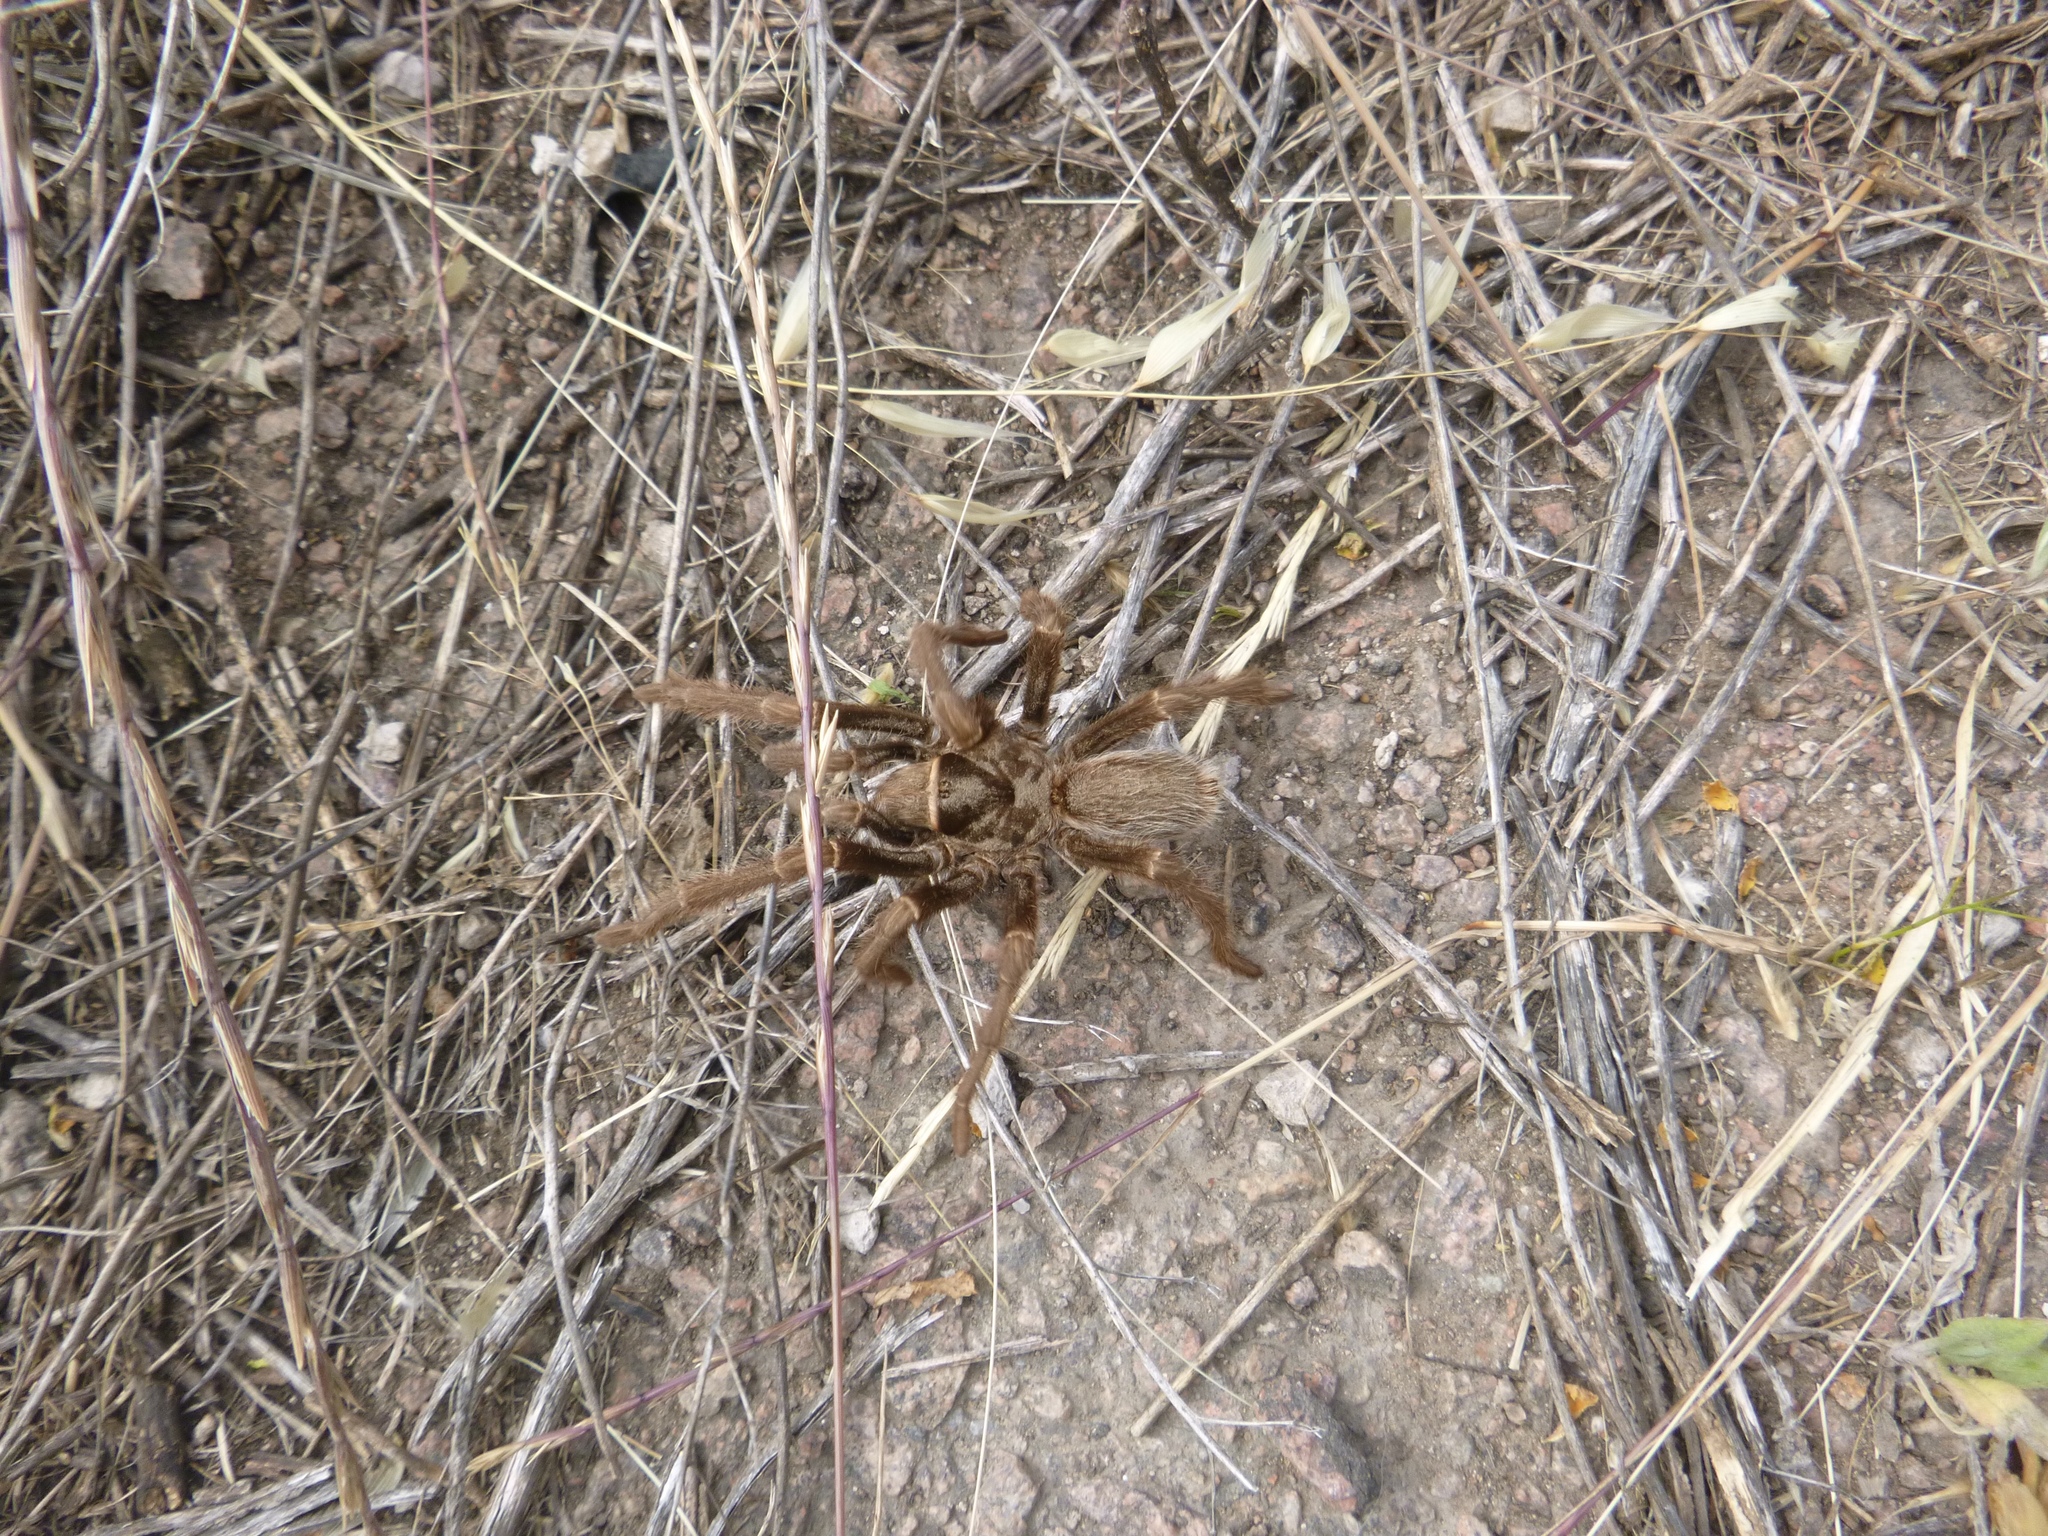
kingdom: Animalia
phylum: Arthropoda
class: Arachnida
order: Araneae
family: Theraphosidae
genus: Grammostola
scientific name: Grammostola doeringi
